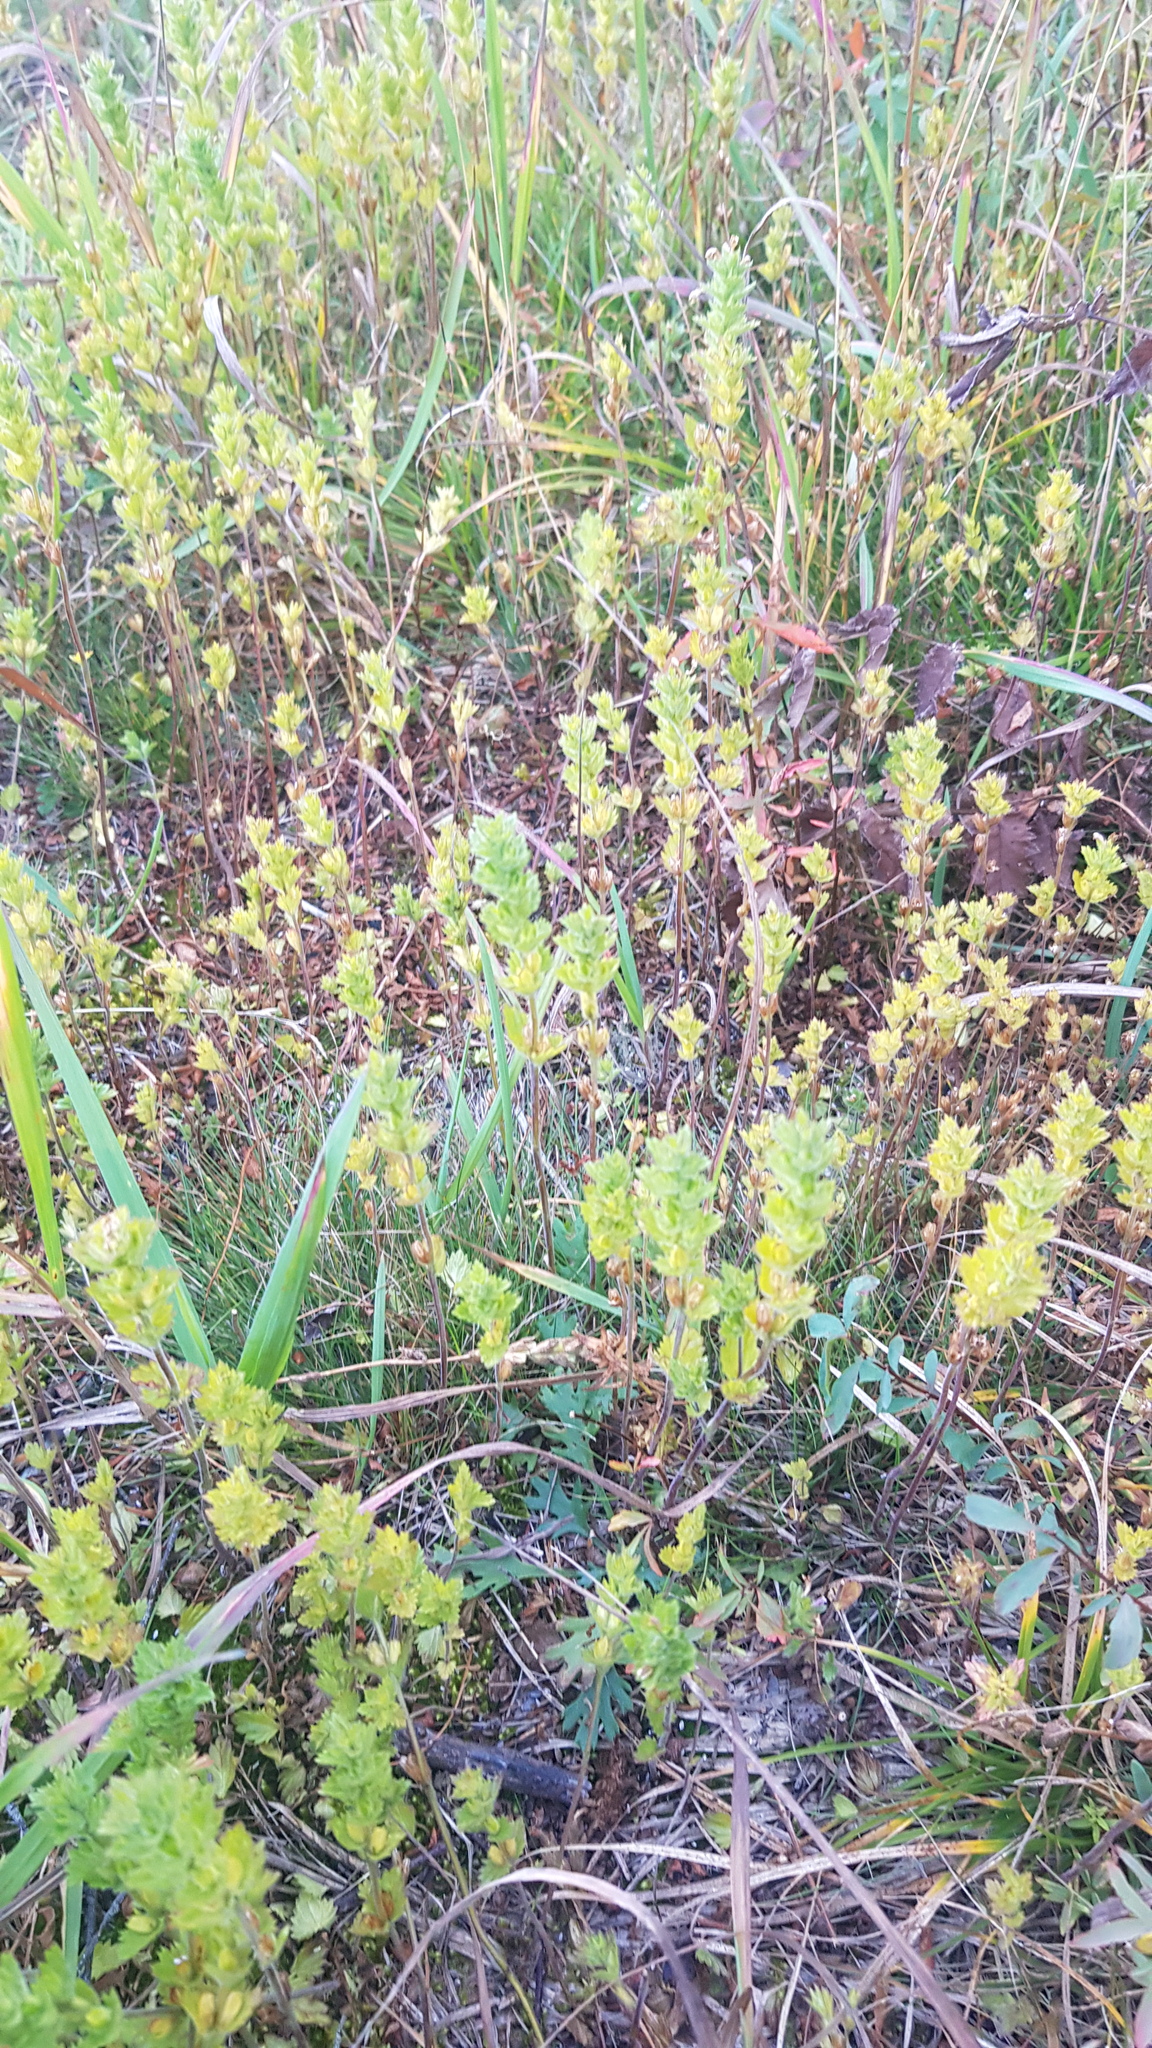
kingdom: Plantae
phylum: Tracheophyta
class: Magnoliopsida
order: Lamiales
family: Orobanchaceae
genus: Euphrasia
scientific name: Euphrasia pectinata
